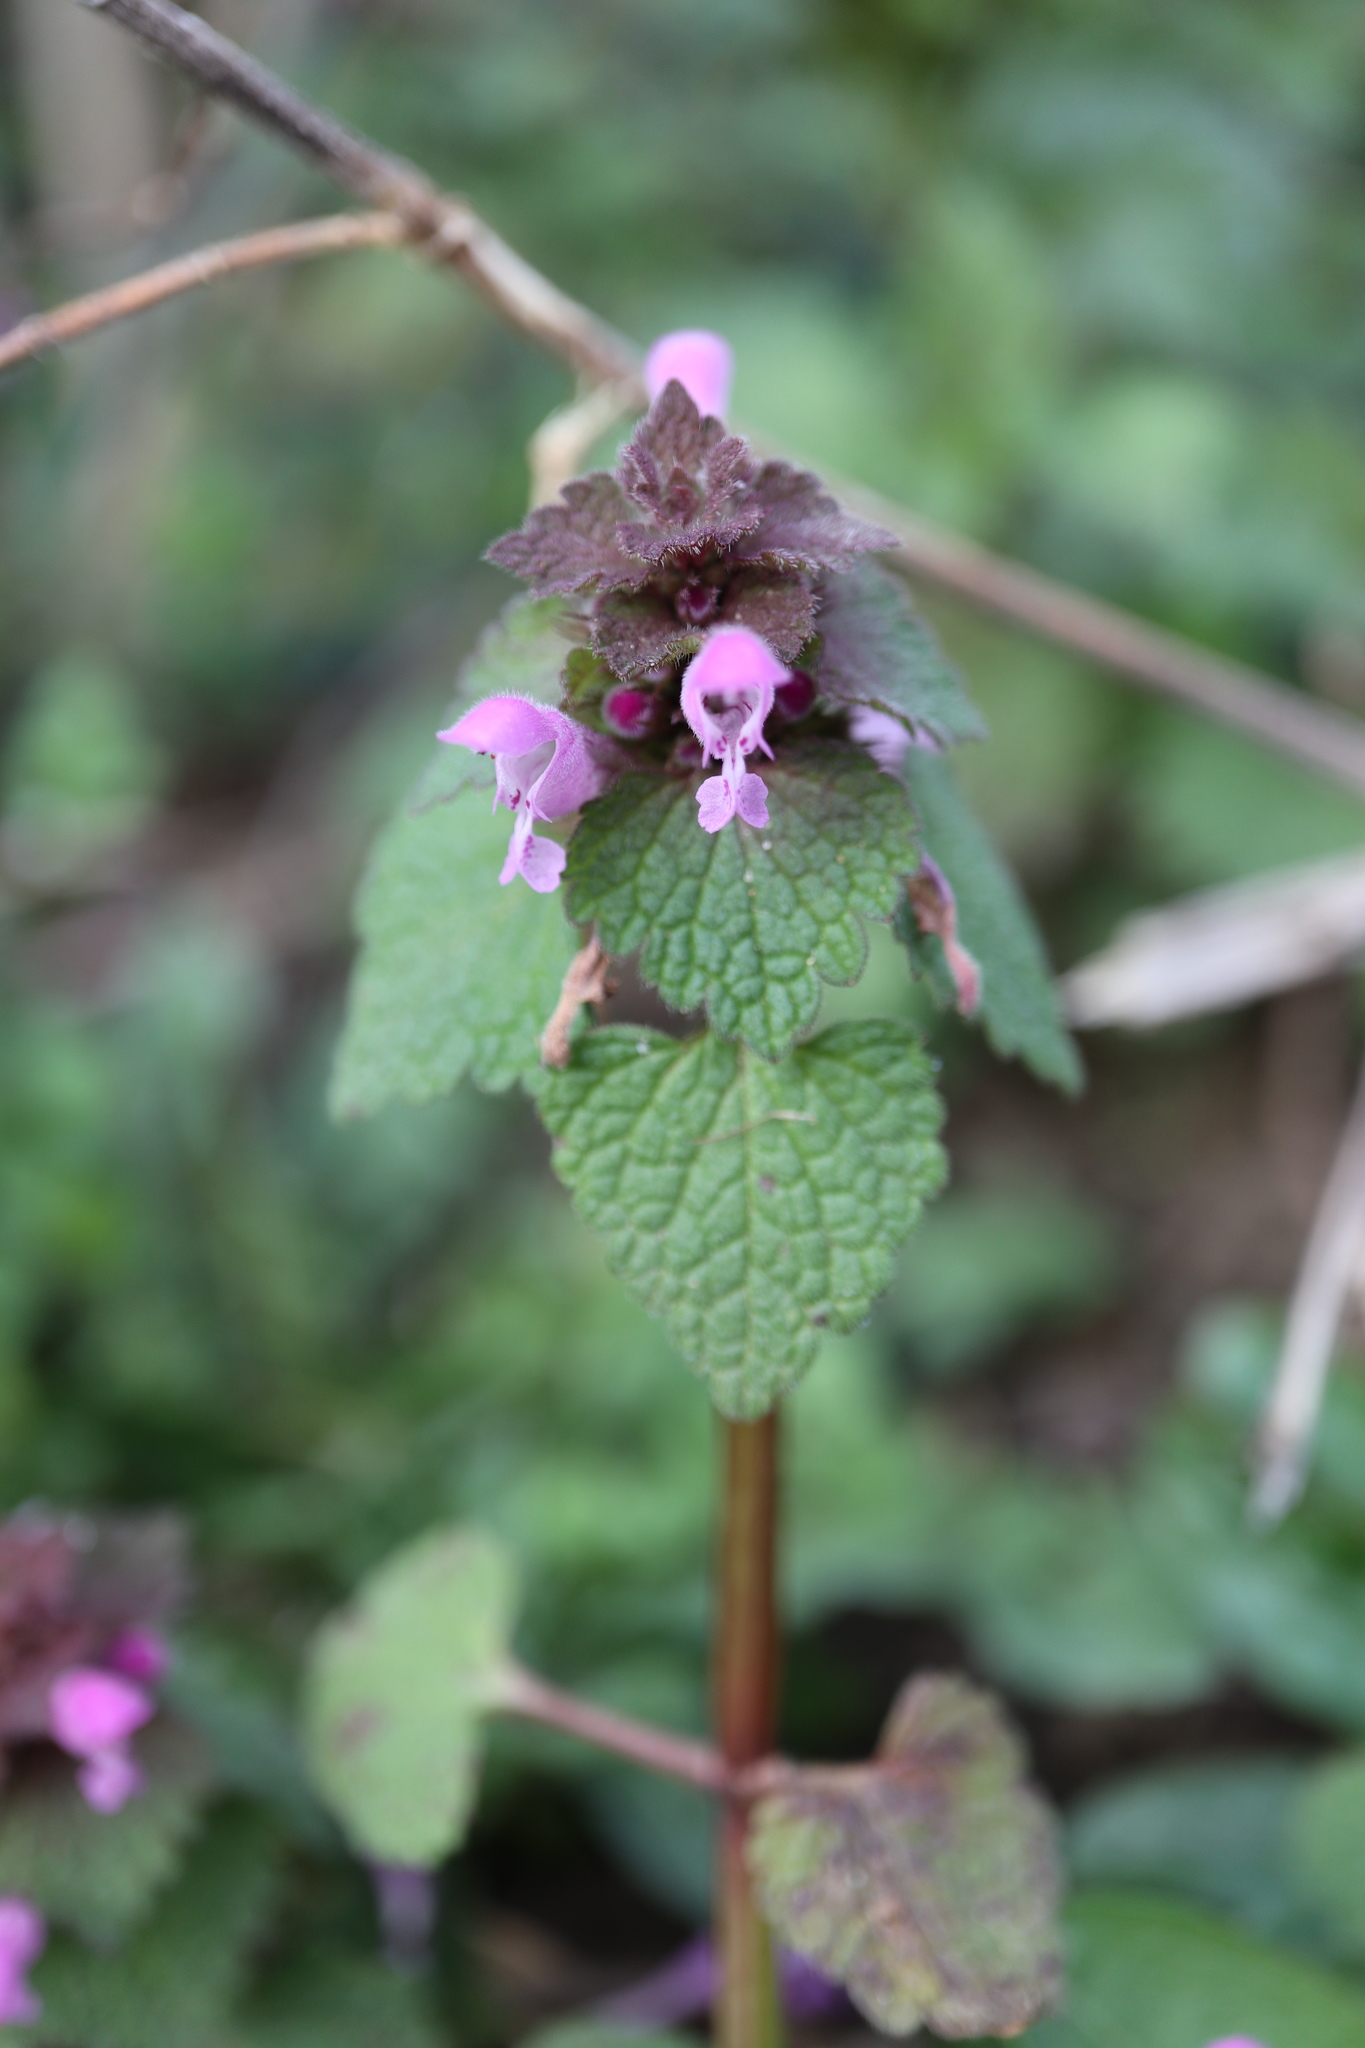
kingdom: Plantae
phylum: Tracheophyta
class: Magnoliopsida
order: Lamiales
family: Lamiaceae
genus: Lamium
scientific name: Lamium purpureum
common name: Red dead-nettle
